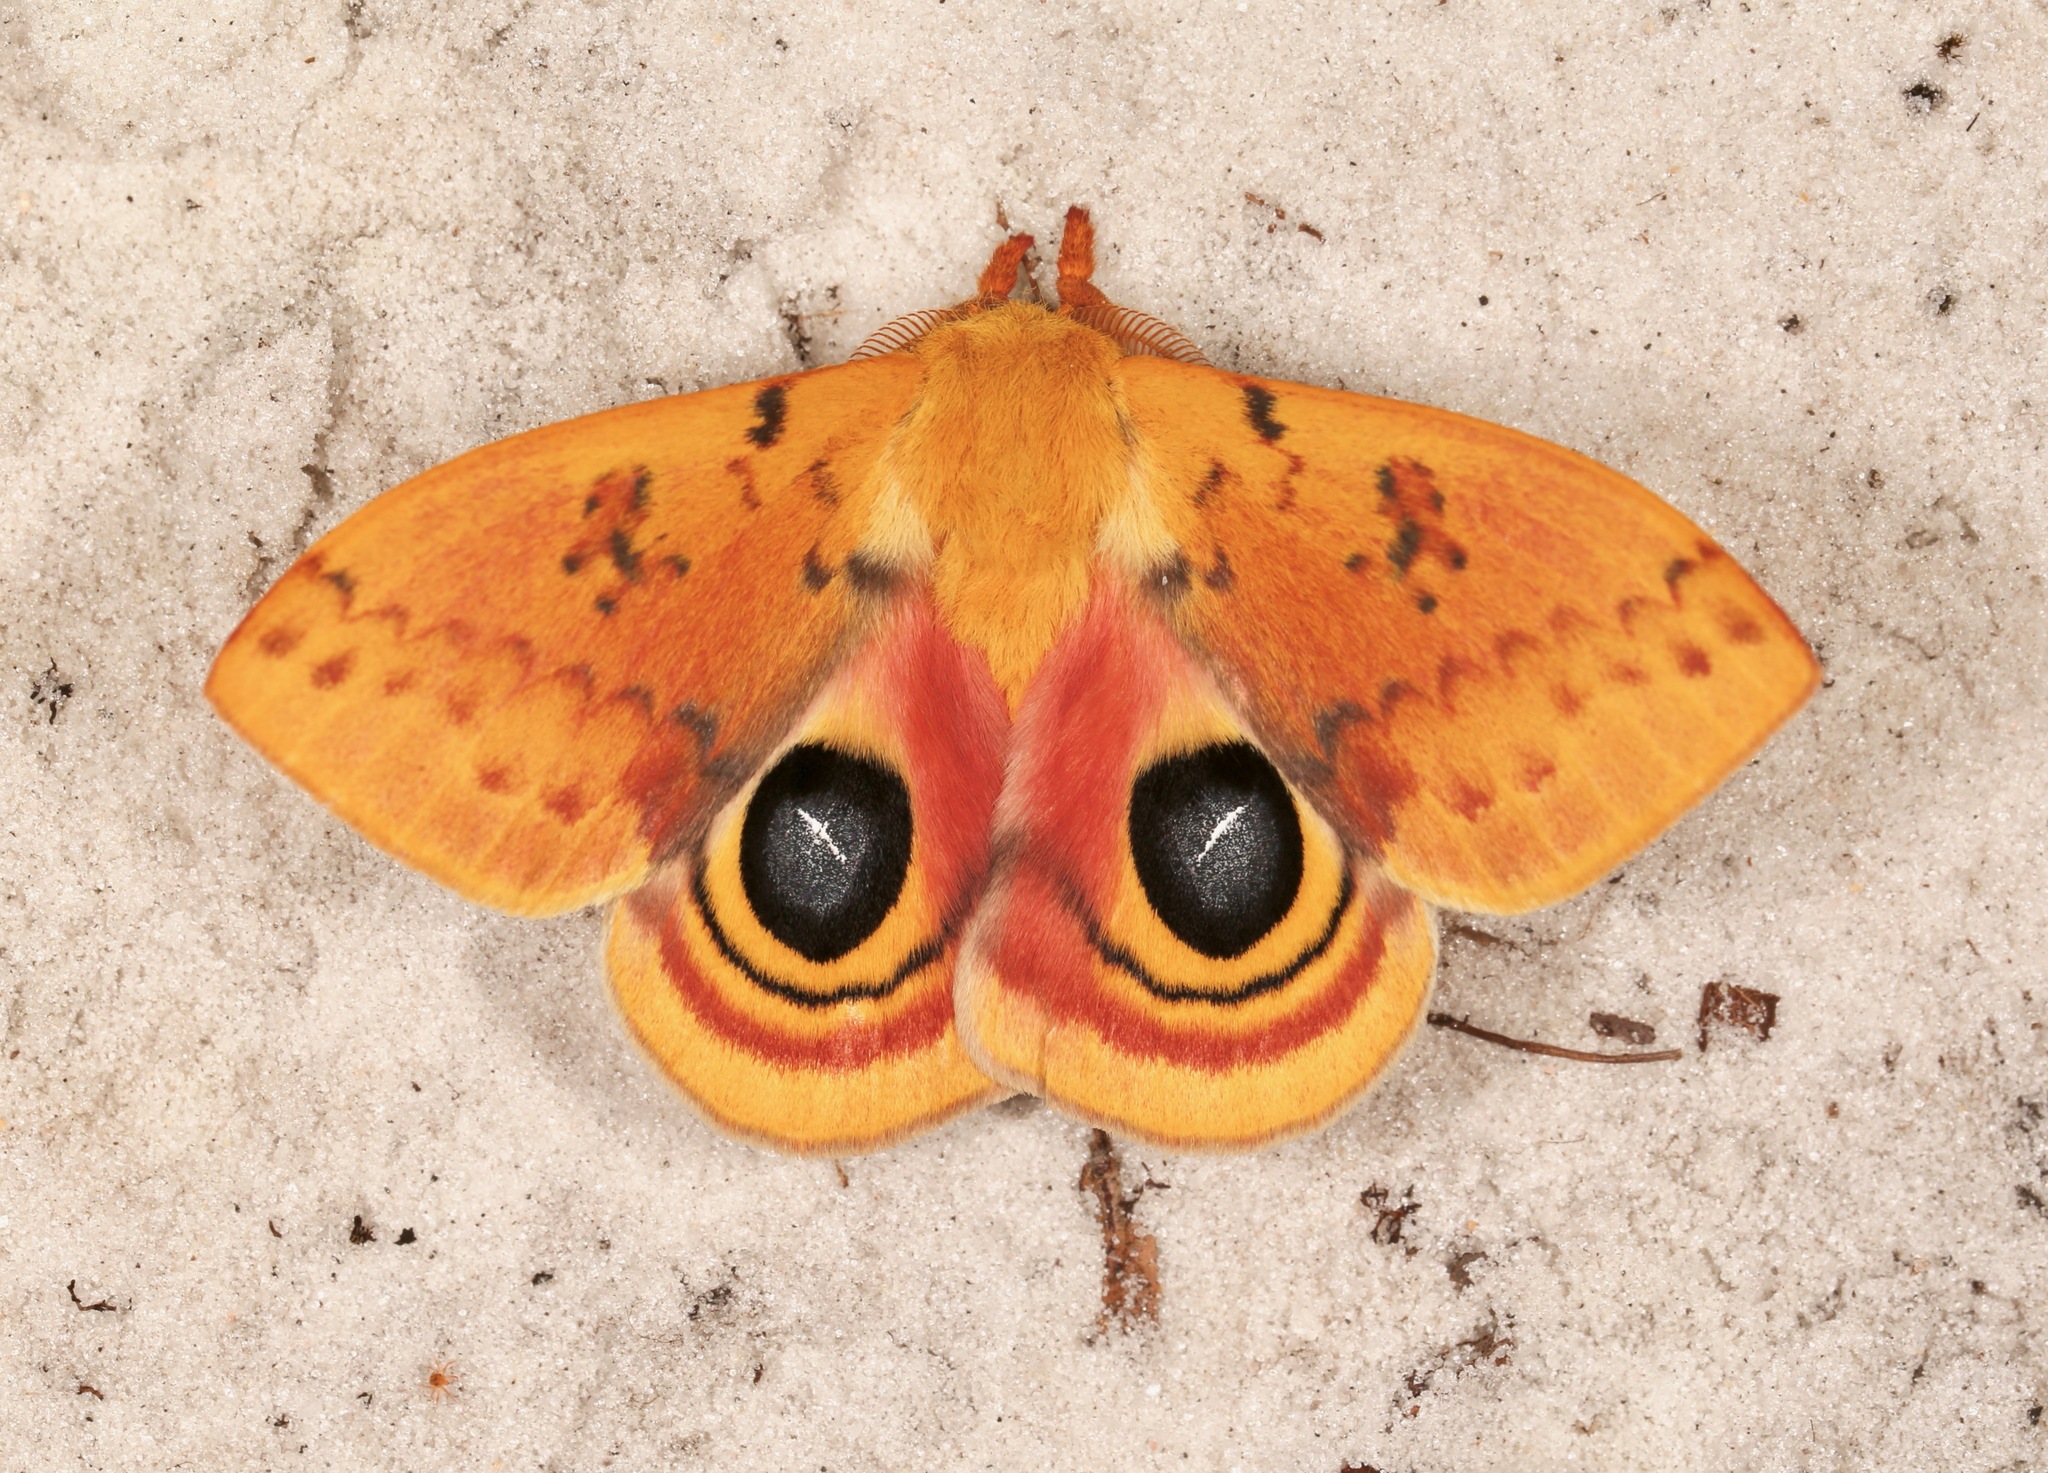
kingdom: Animalia
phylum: Arthropoda
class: Insecta
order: Lepidoptera
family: Saturniidae
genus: Automeris
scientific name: Automeris io
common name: Io moth
